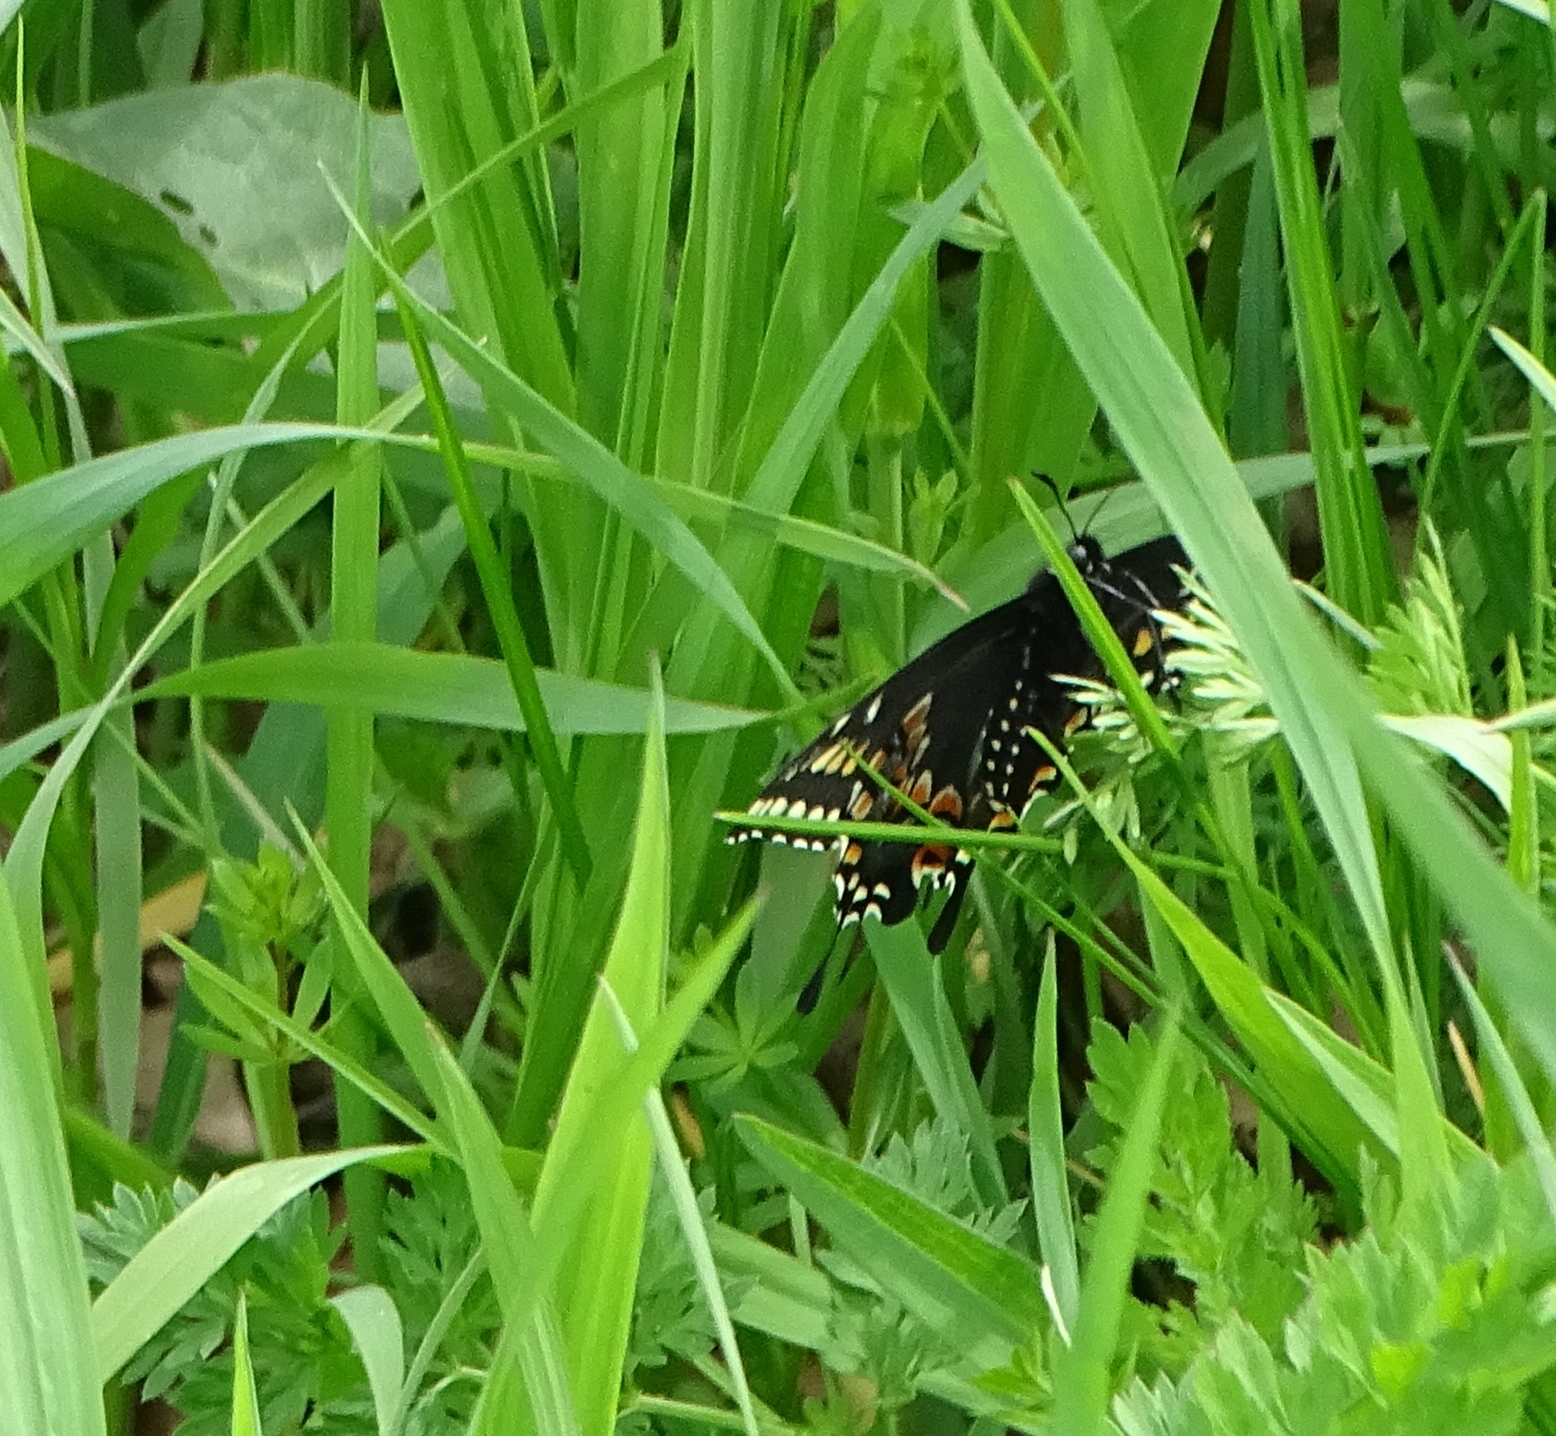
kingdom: Animalia
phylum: Arthropoda
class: Insecta
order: Lepidoptera
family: Papilionidae
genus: Papilio
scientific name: Papilio polyxenes
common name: Black swallowtail
